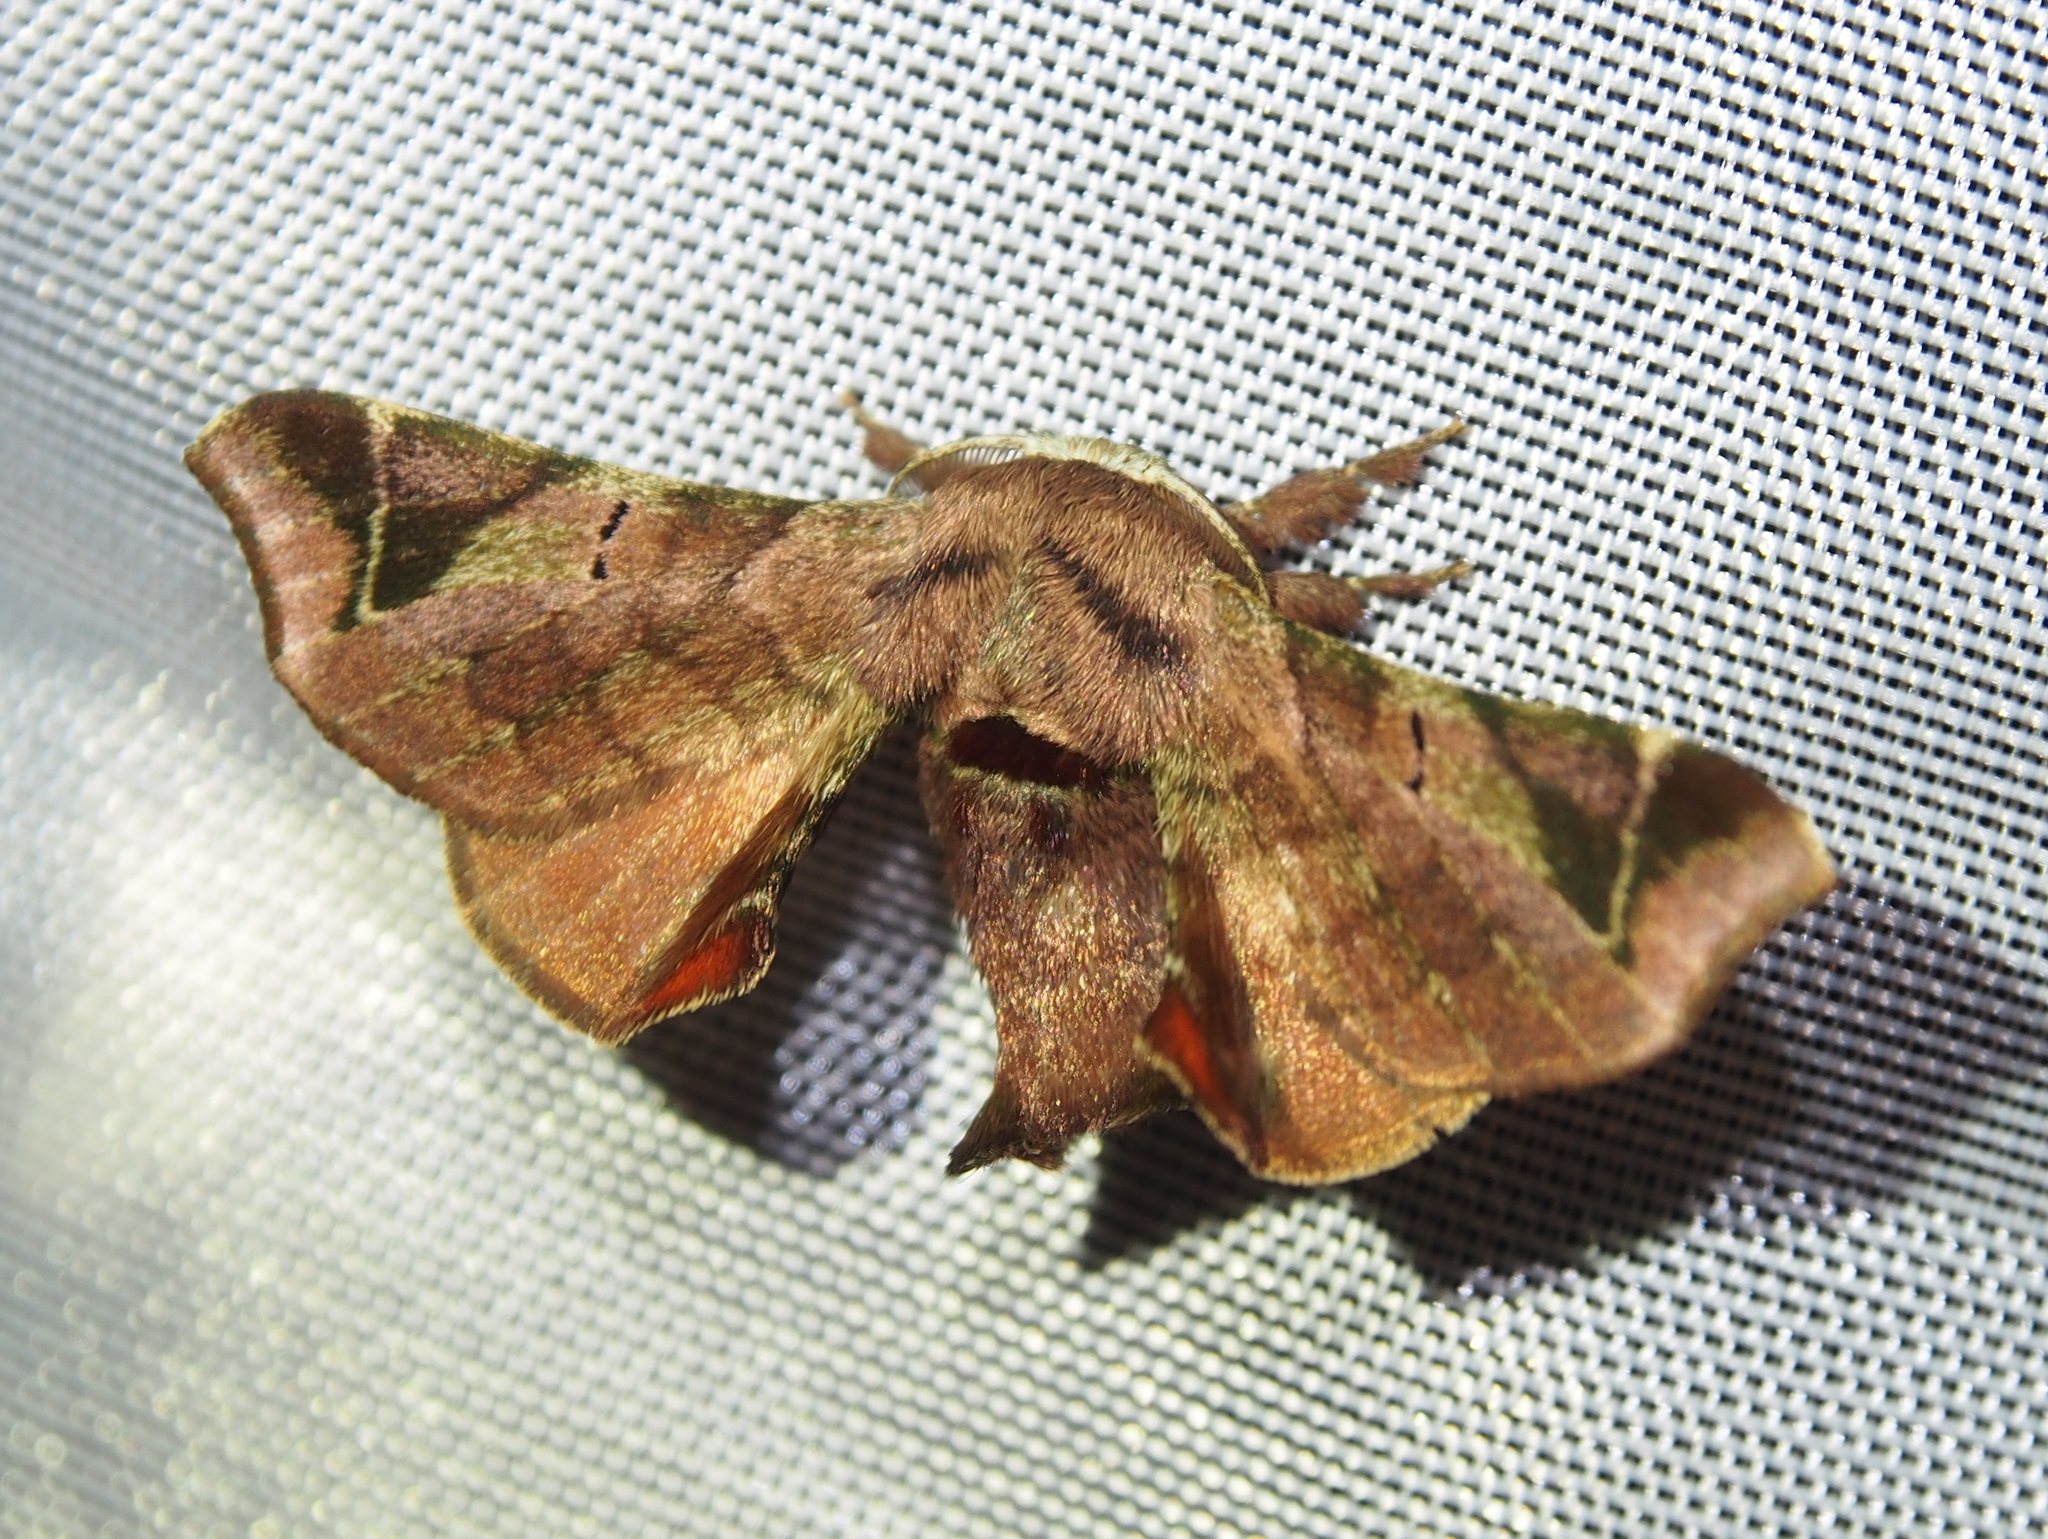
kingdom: Animalia
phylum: Arthropoda
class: Insecta
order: Lepidoptera
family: Bombycidae
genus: Quentalia
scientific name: Quentalia numalia
